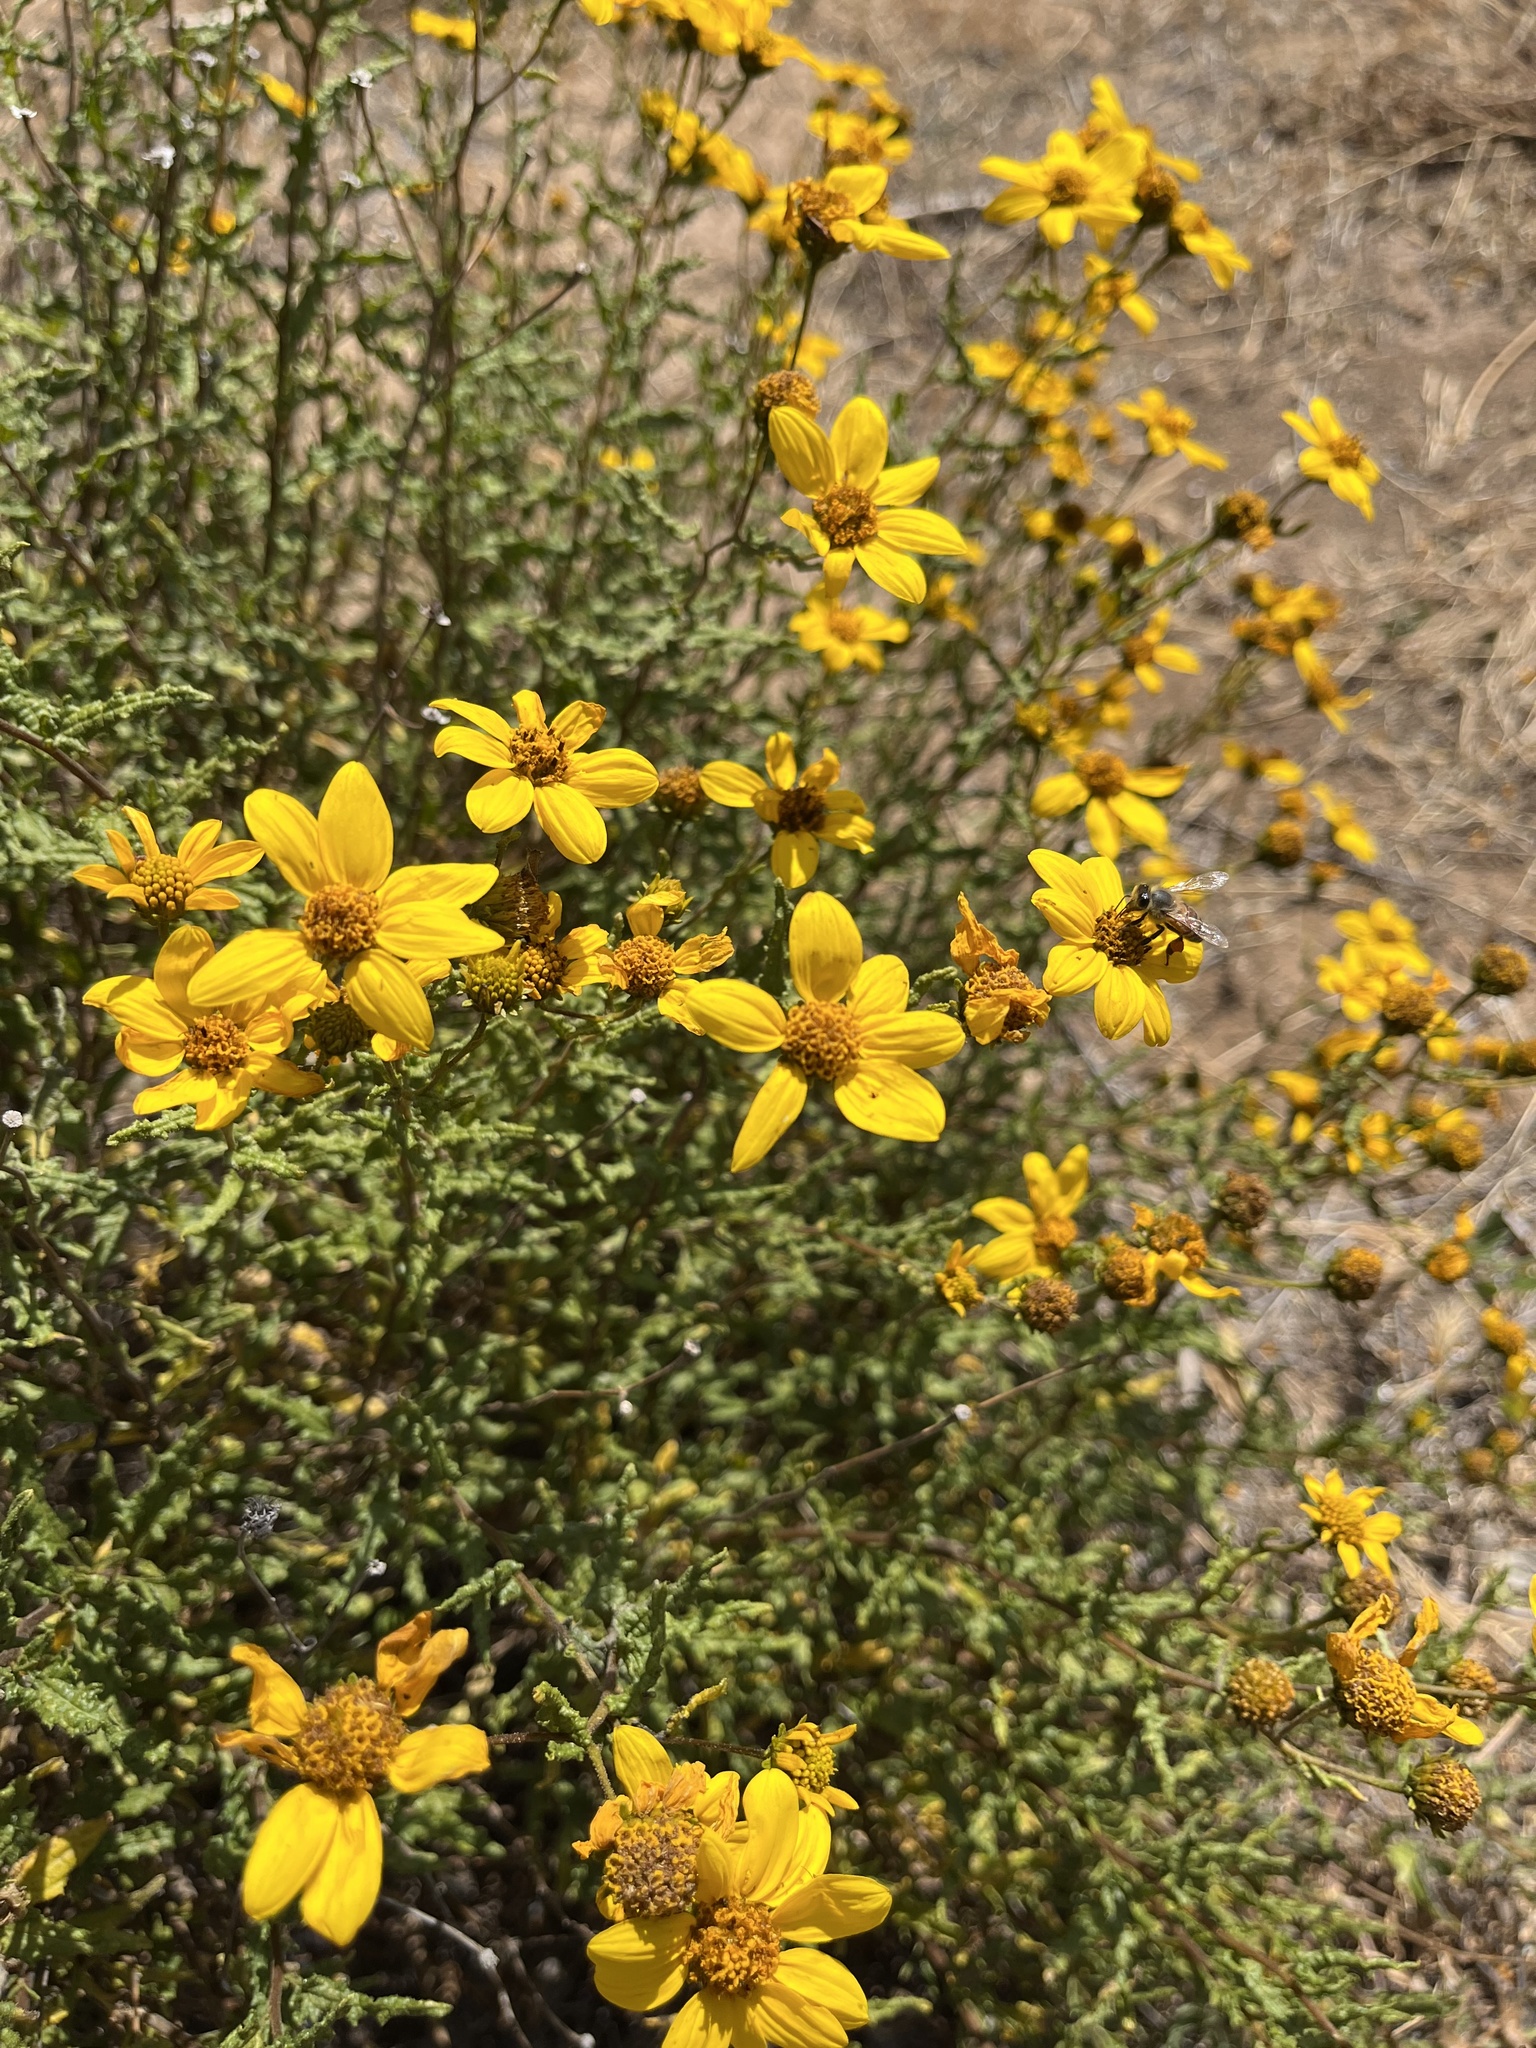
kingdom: Plantae
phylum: Tracheophyta
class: Magnoliopsida
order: Asterales
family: Asteraceae
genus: Bahiopsis
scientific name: Bahiopsis laciniata
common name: San diego county viguiera
